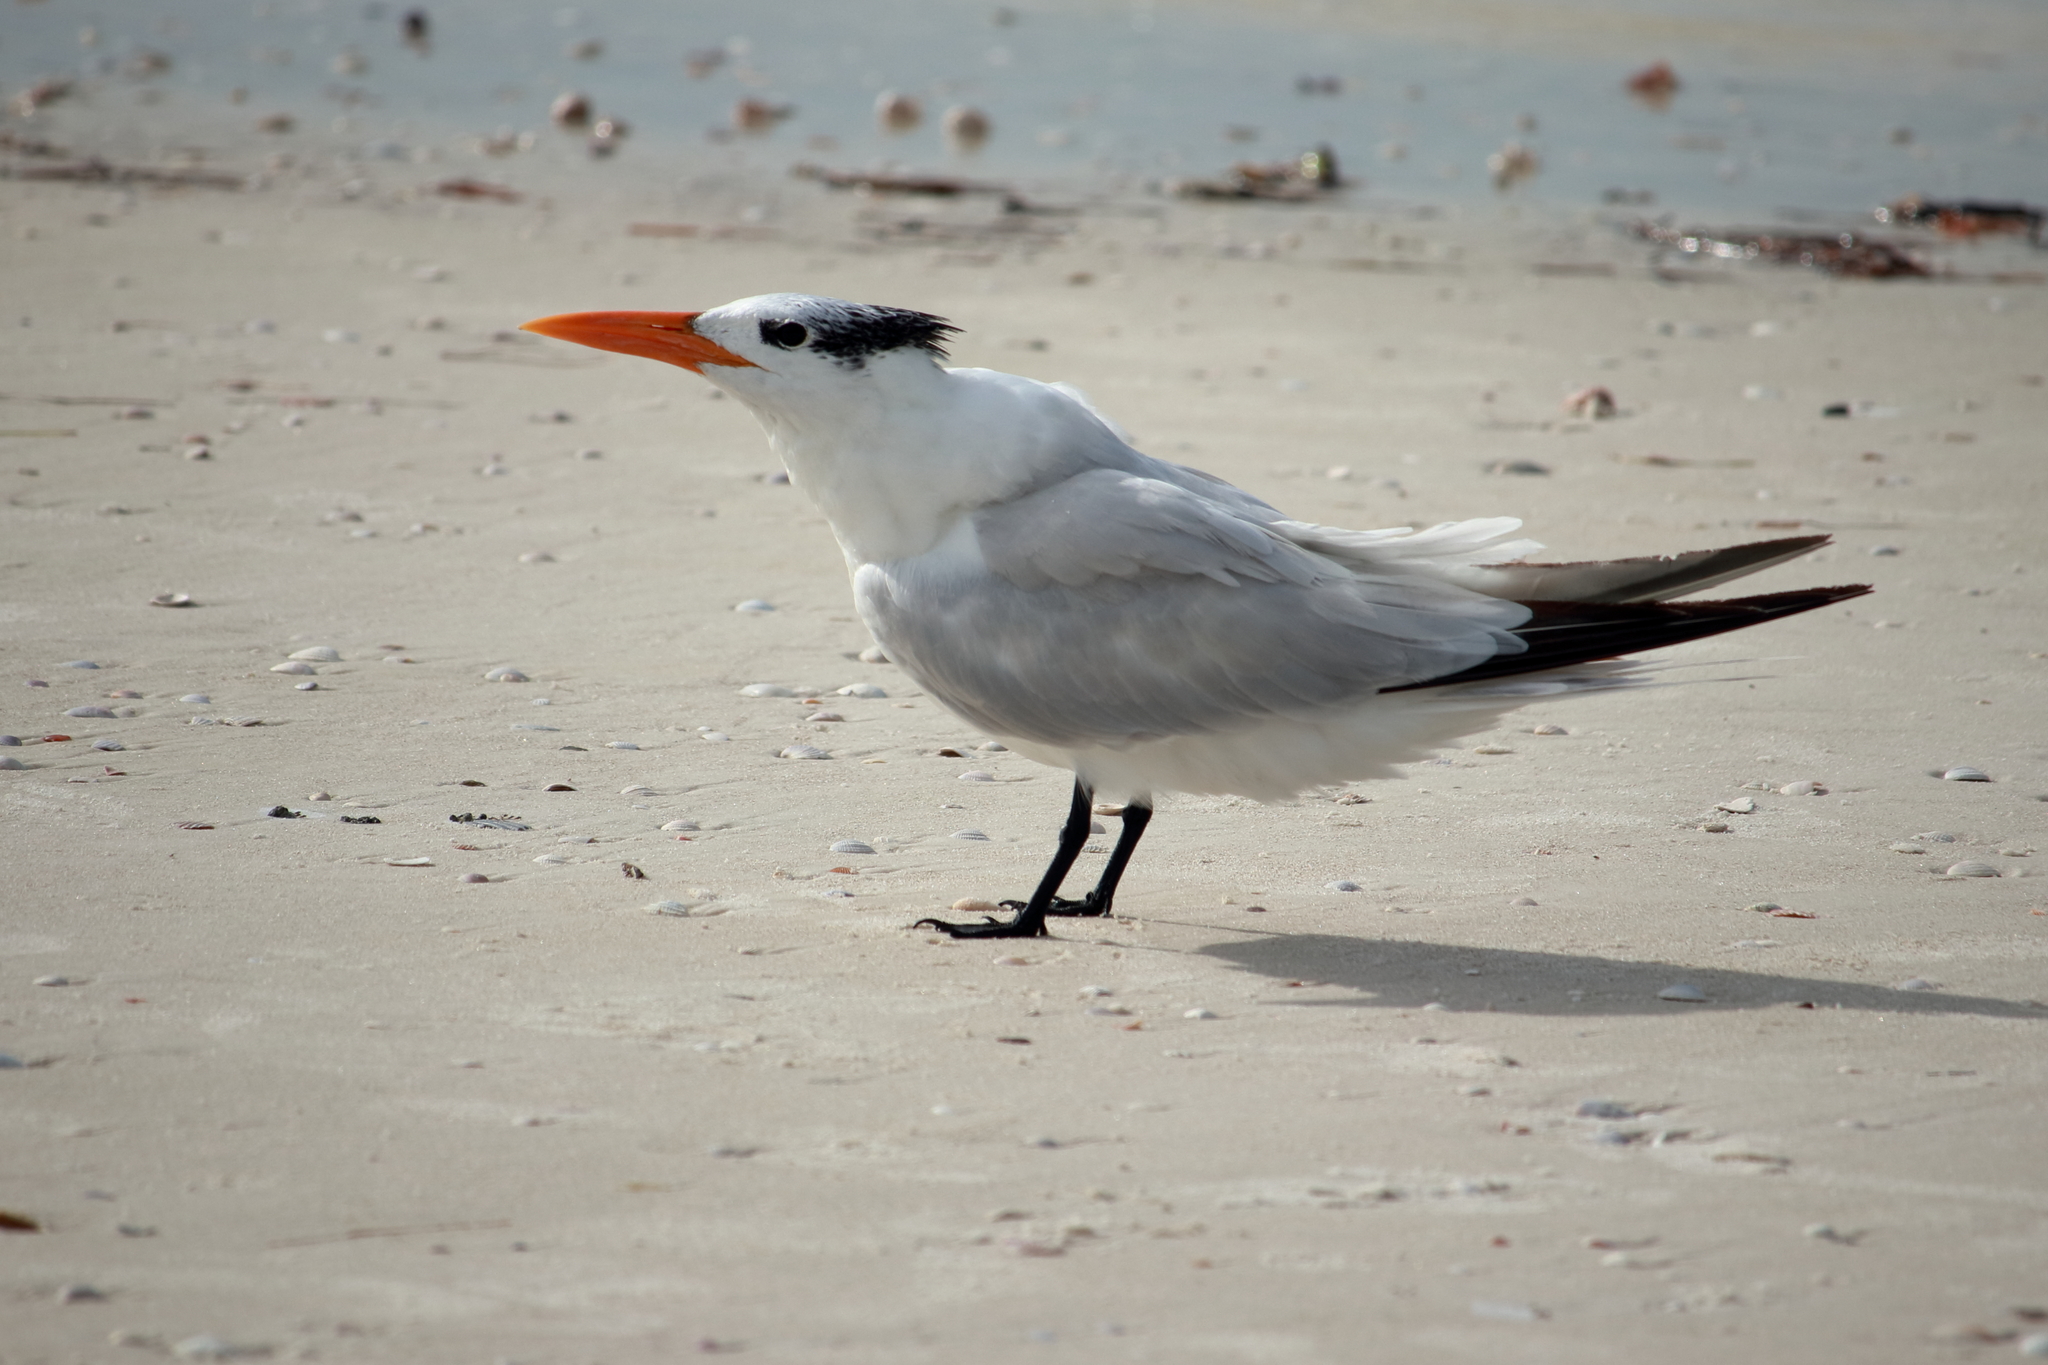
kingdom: Animalia
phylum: Chordata
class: Aves
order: Charadriiformes
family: Laridae
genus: Thalasseus
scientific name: Thalasseus maximus
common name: Royal tern
